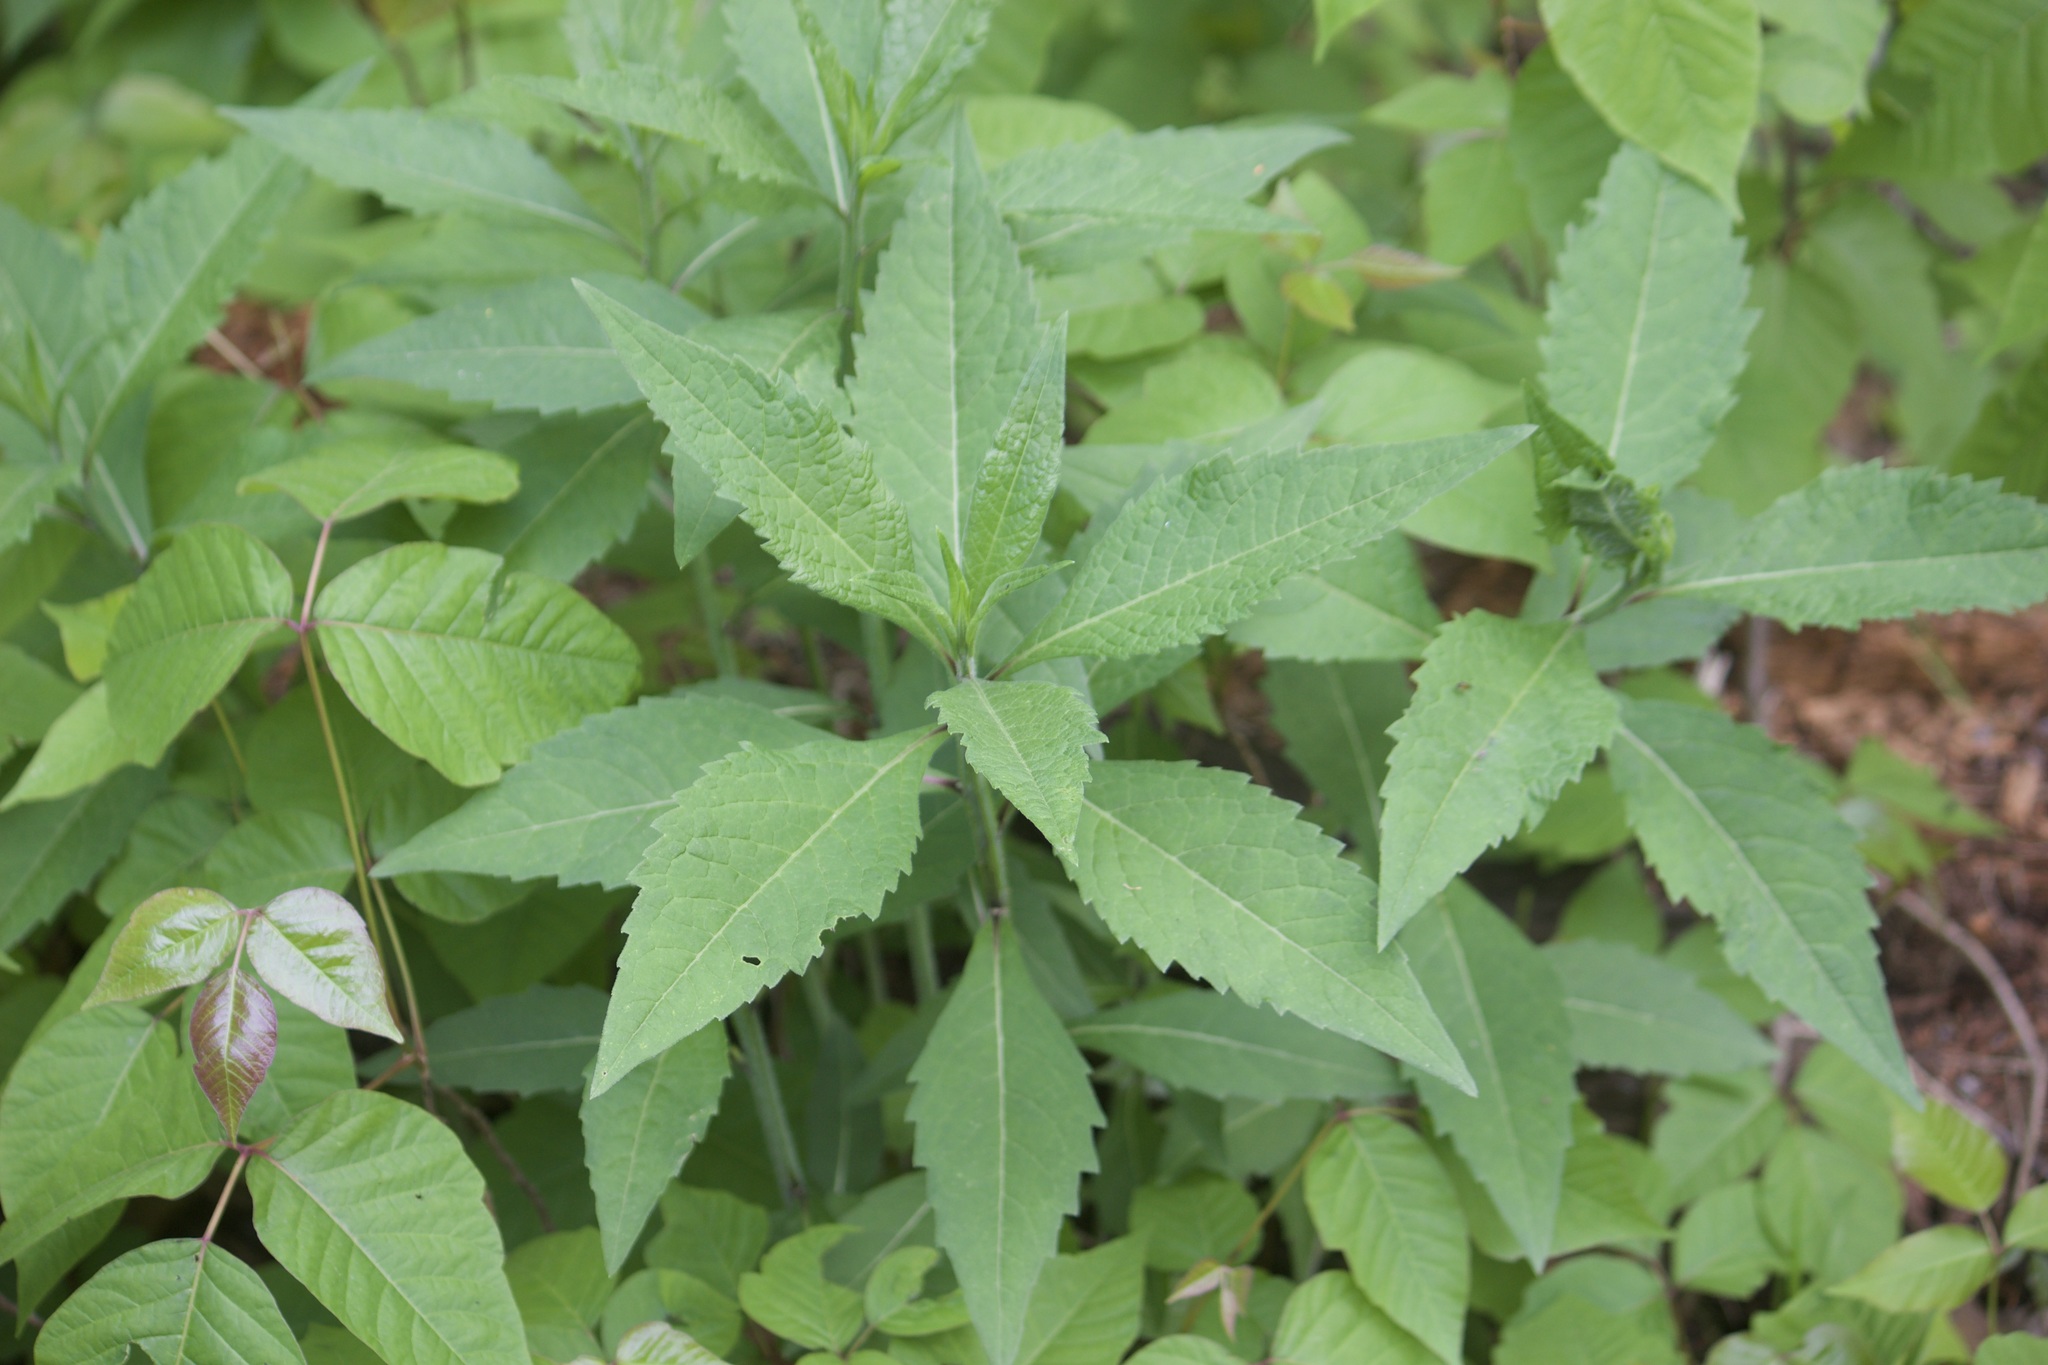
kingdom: Plantae
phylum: Tracheophyta
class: Magnoliopsida
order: Asterales
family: Asteraceae
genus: Verbesina
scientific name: Verbesina alternifolia
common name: Wingstem
